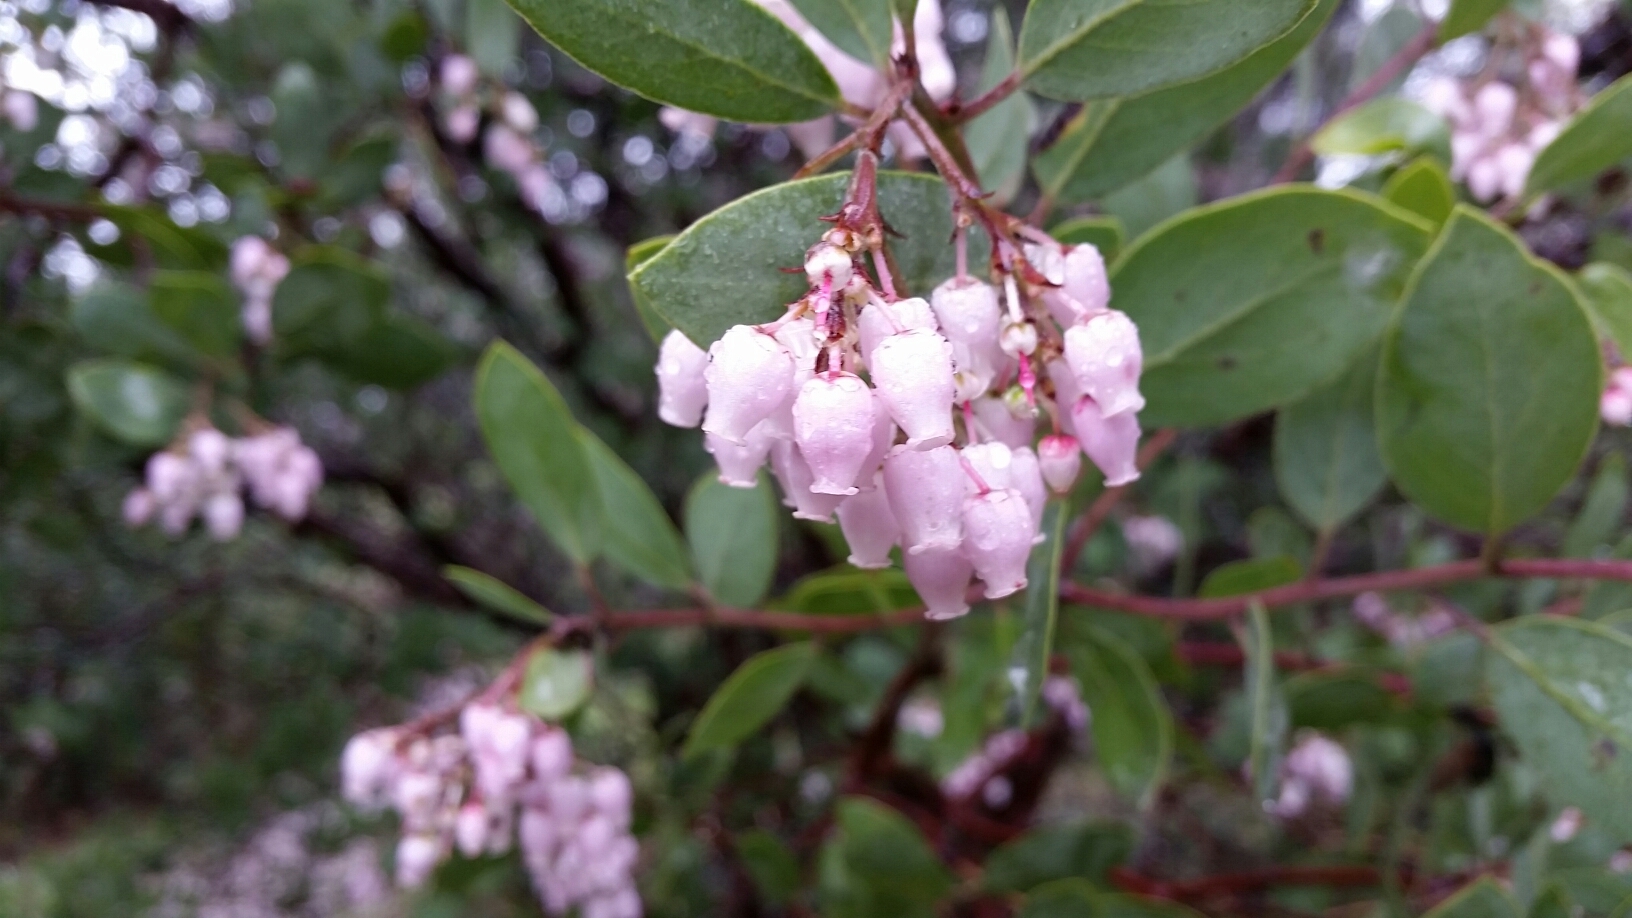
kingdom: Plantae
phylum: Tracheophyta
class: Magnoliopsida
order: Ericales
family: Ericaceae
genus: Arctostaphylos
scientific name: Arctostaphylos manzanita
